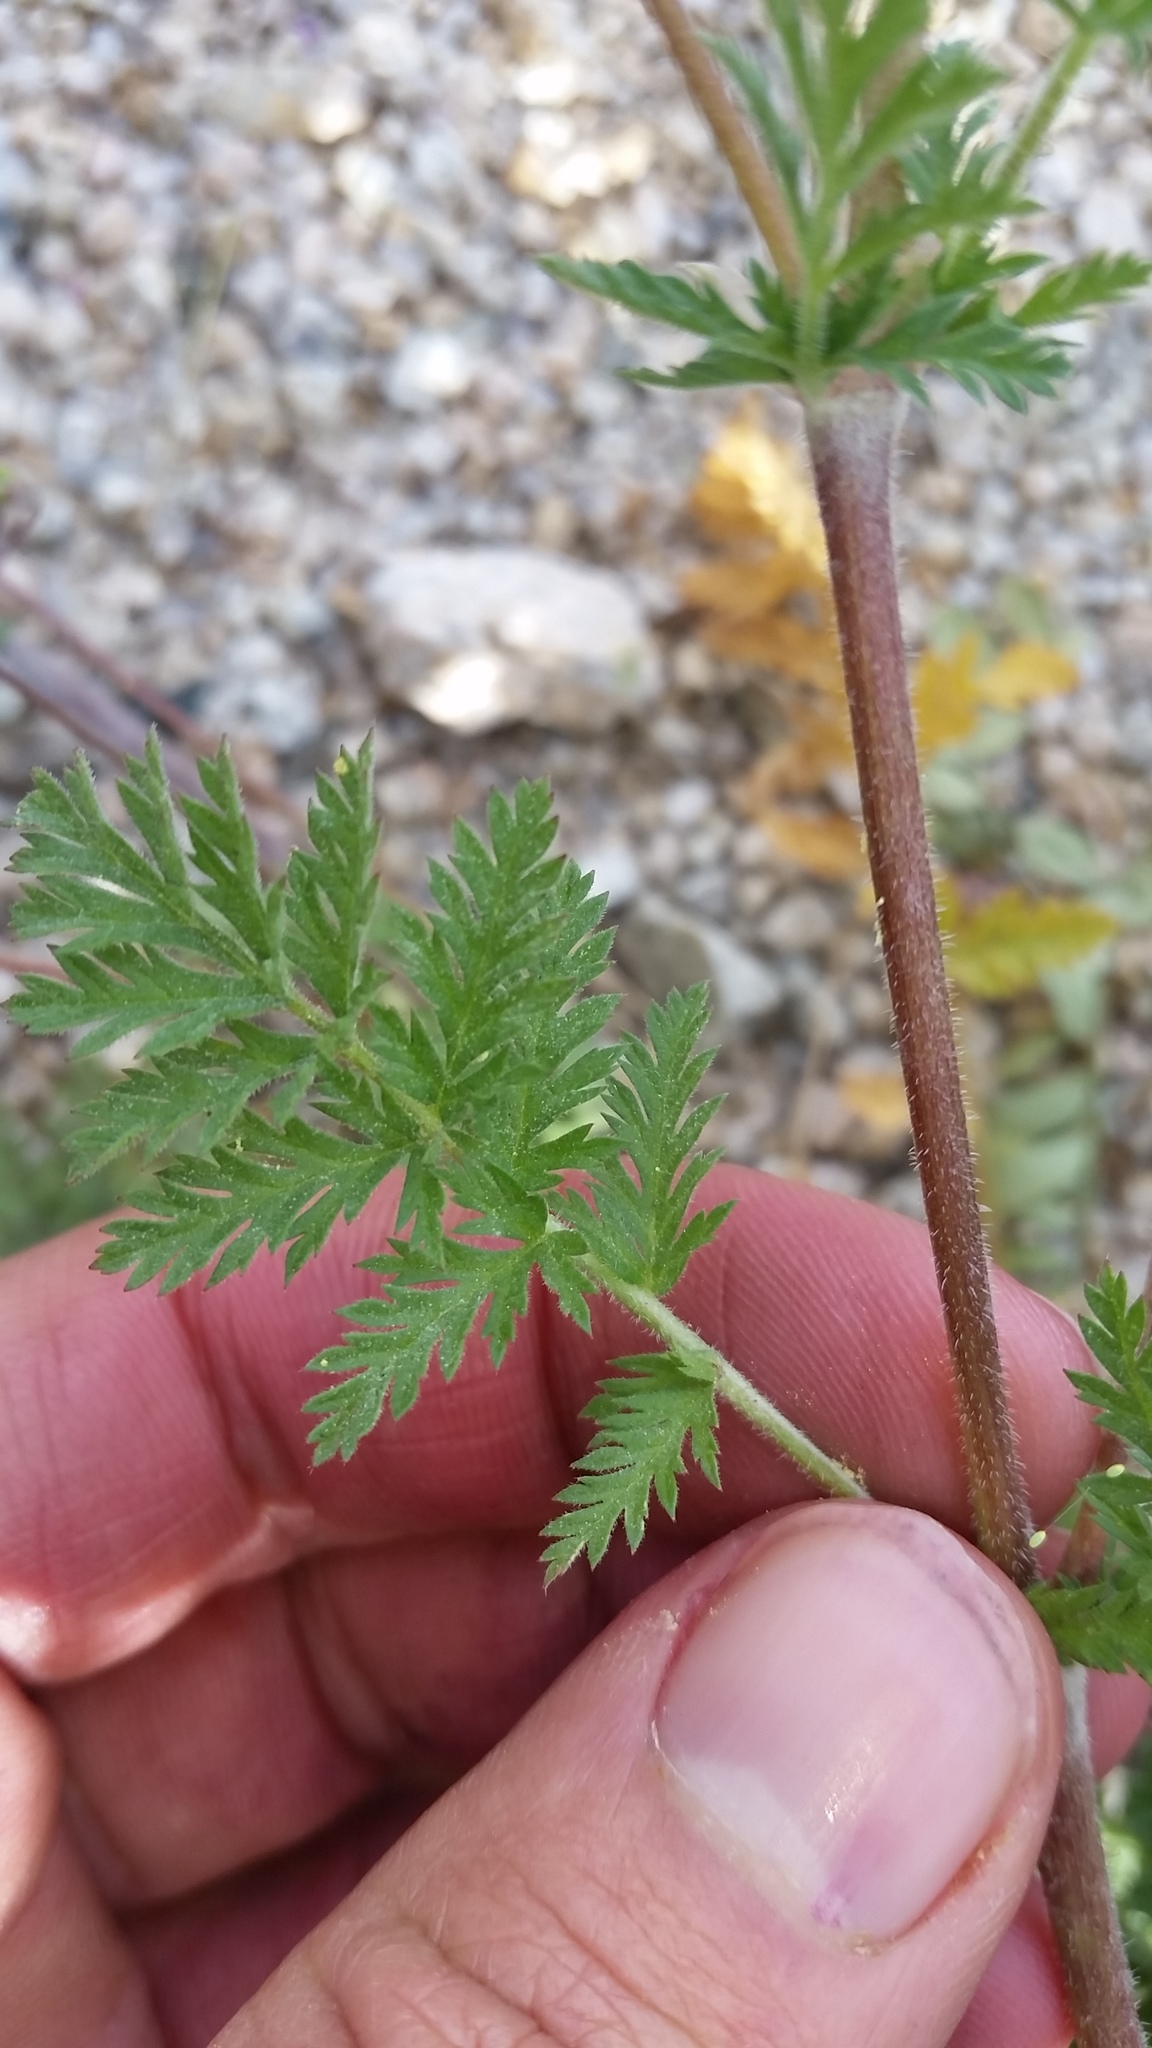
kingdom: Plantae
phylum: Tracheophyta
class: Magnoliopsida
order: Geraniales
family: Geraniaceae
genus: Erodium
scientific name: Erodium cicutarium
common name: Common stork's-bill
